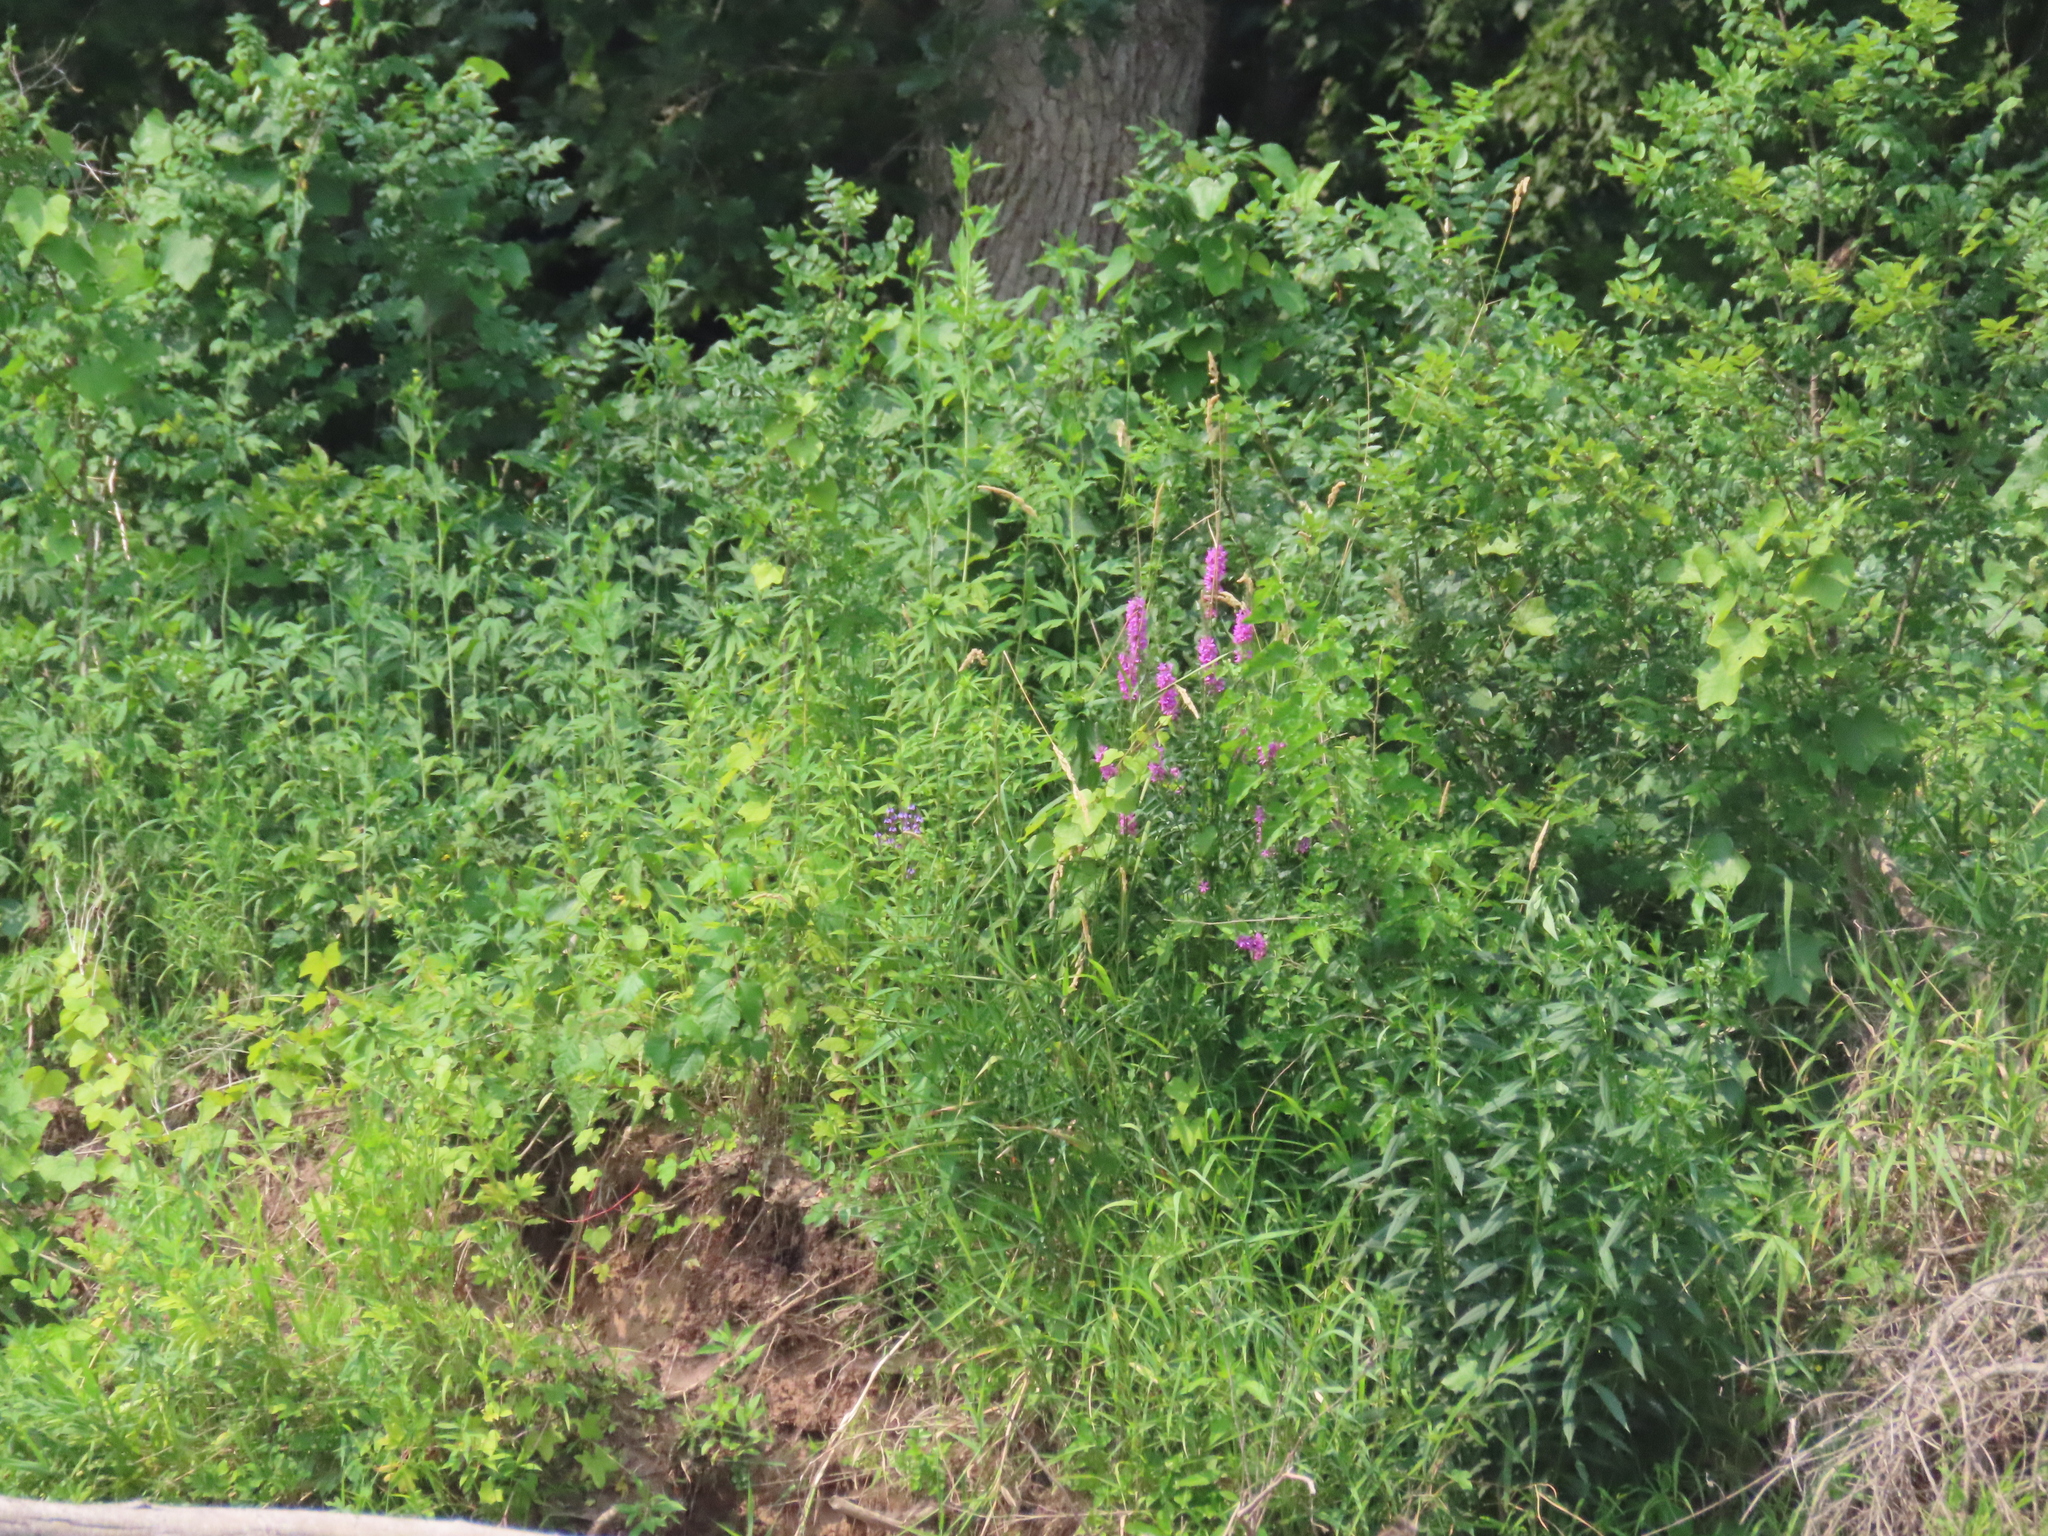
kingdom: Plantae
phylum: Tracheophyta
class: Magnoliopsida
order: Myrtales
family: Lythraceae
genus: Lythrum
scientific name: Lythrum salicaria
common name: Purple loosestrife
